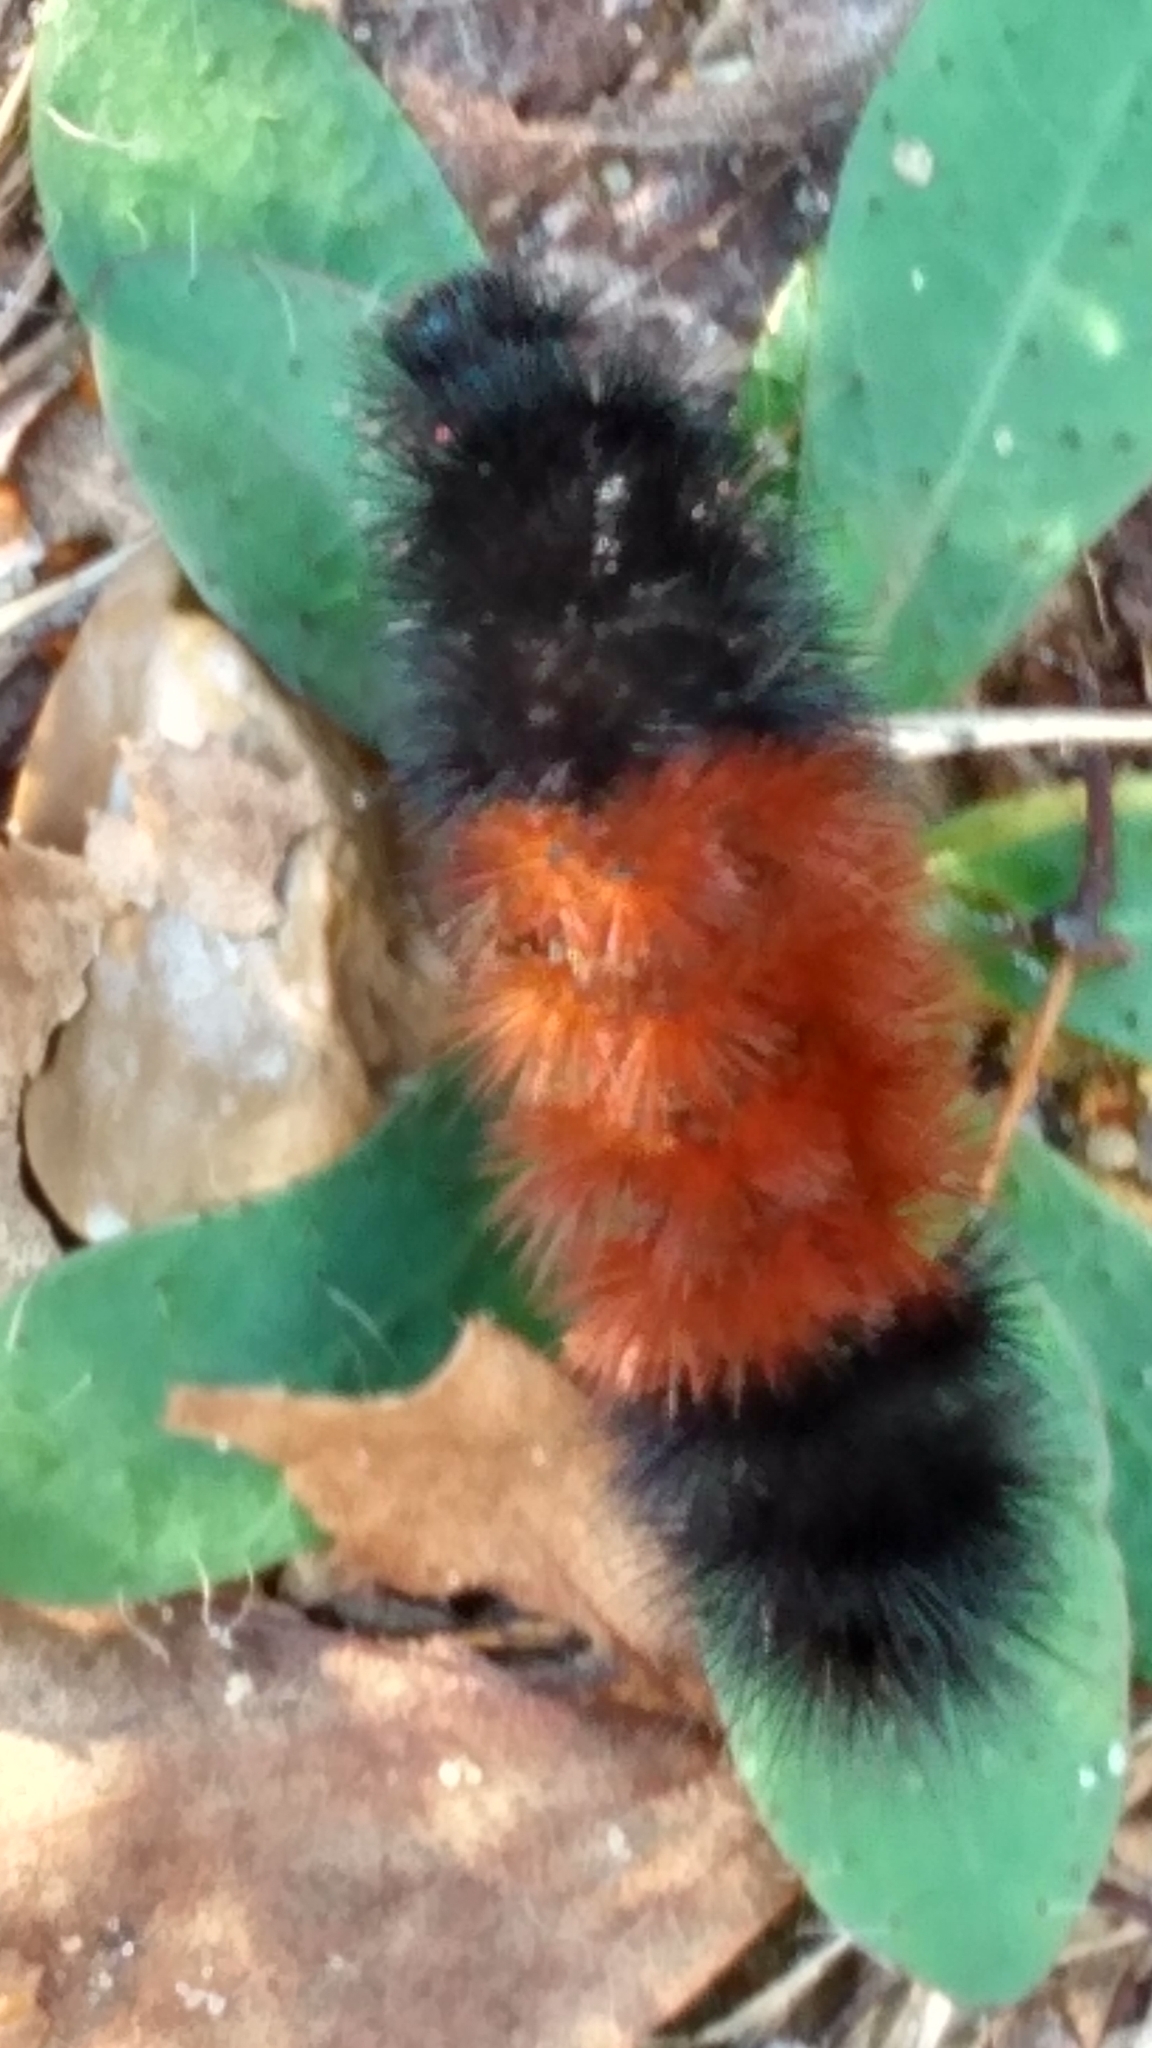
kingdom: Animalia
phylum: Arthropoda
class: Insecta
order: Lepidoptera
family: Erebidae
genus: Pyrrharctia
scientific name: Pyrrharctia isabella
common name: Isabella tiger moth
